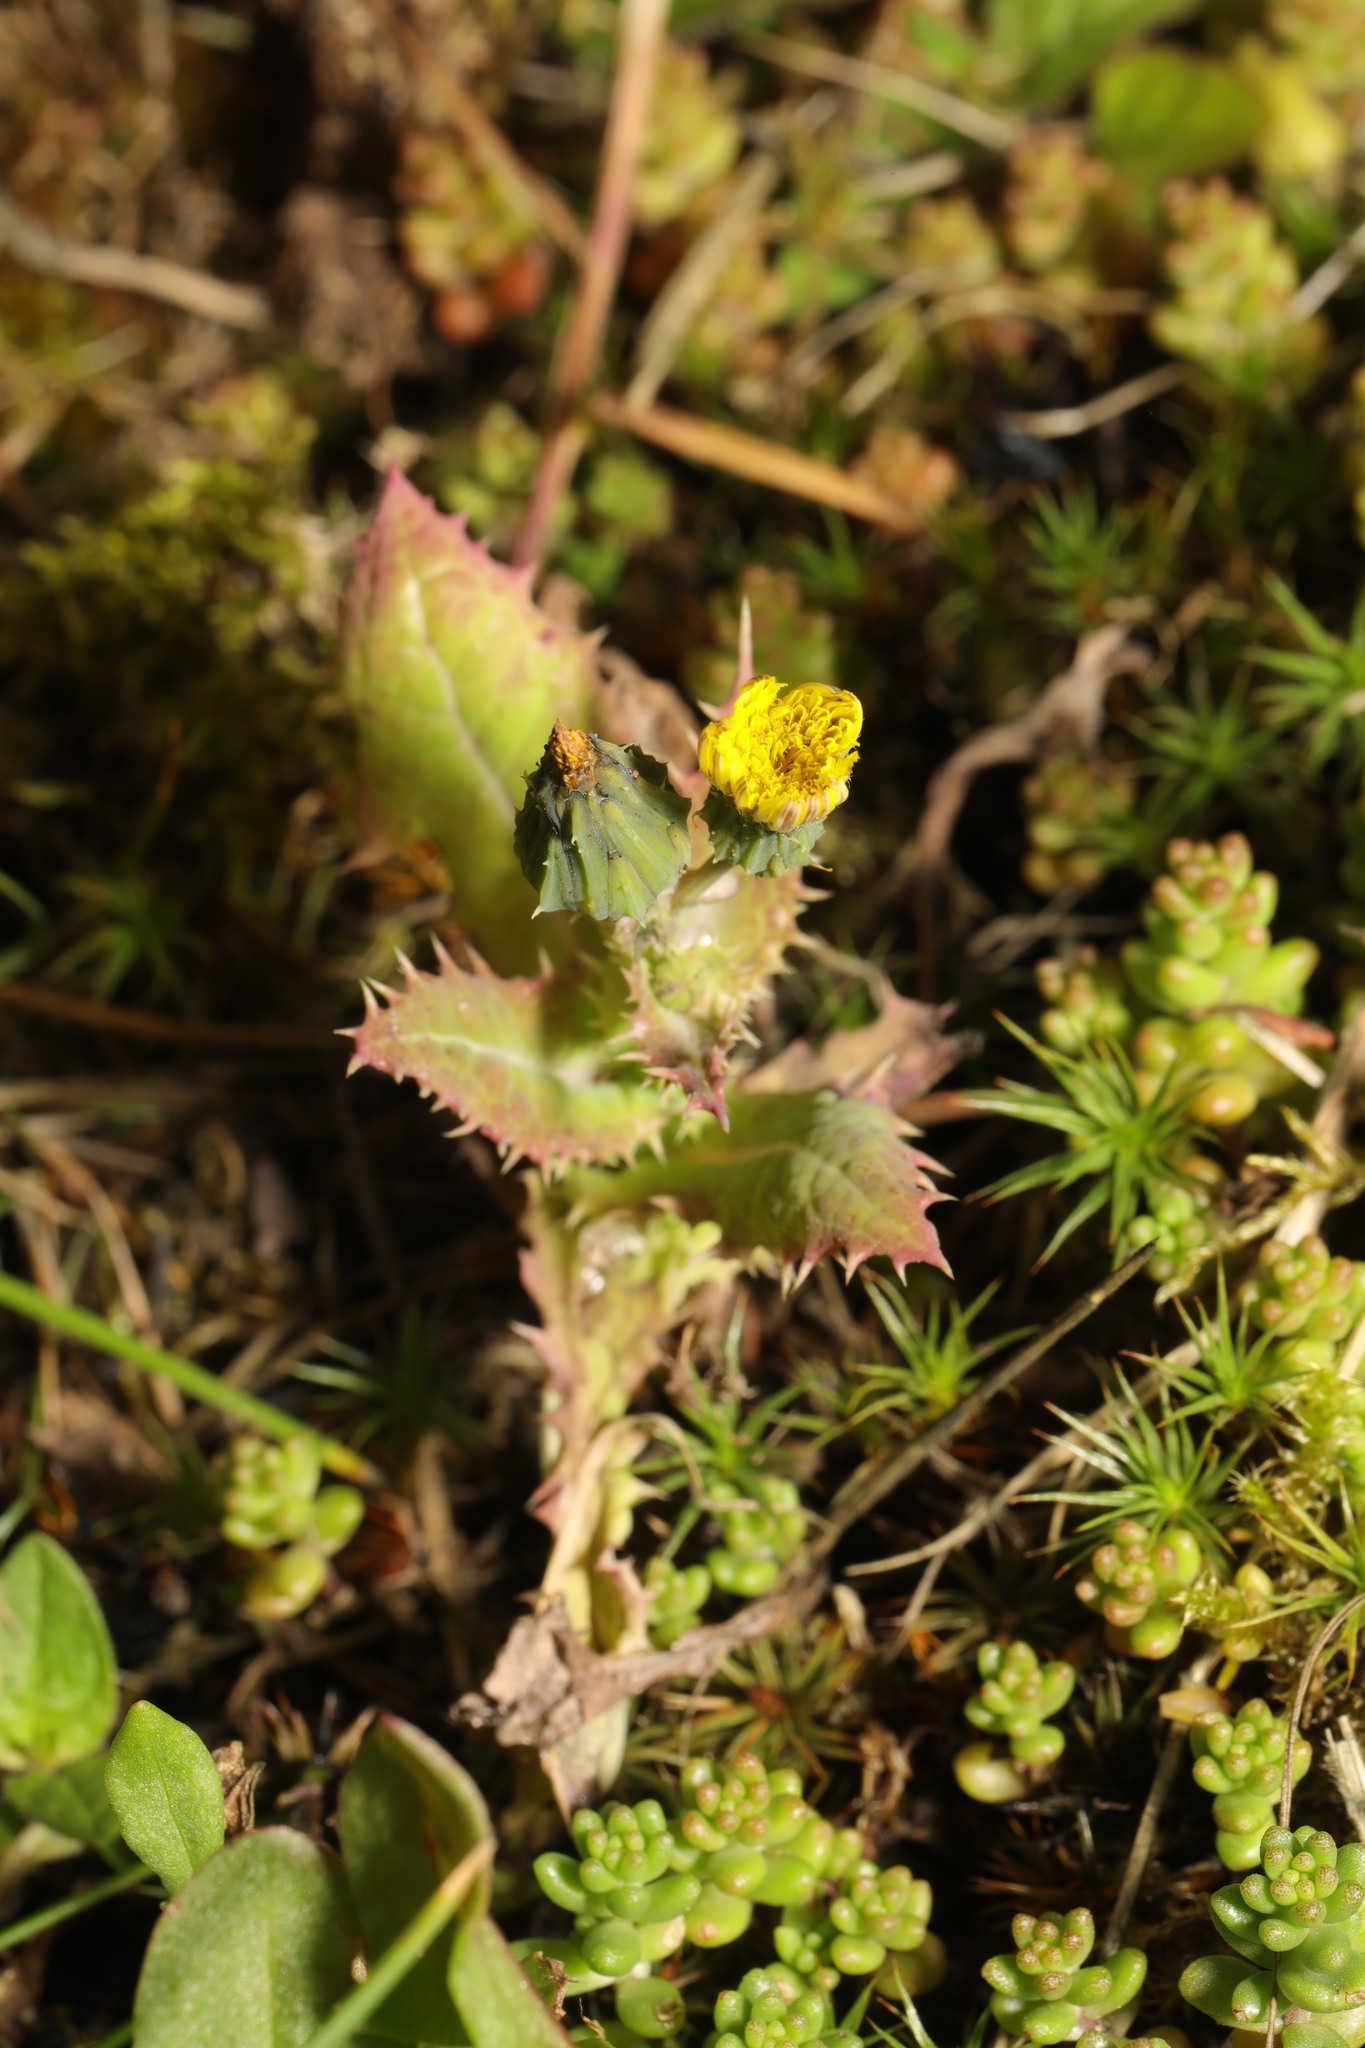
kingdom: Plantae
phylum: Tracheophyta
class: Magnoliopsida
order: Asterales
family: Asteraceae
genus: Sonchus
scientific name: Sonchus asper
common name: Prickly sow-thistle
